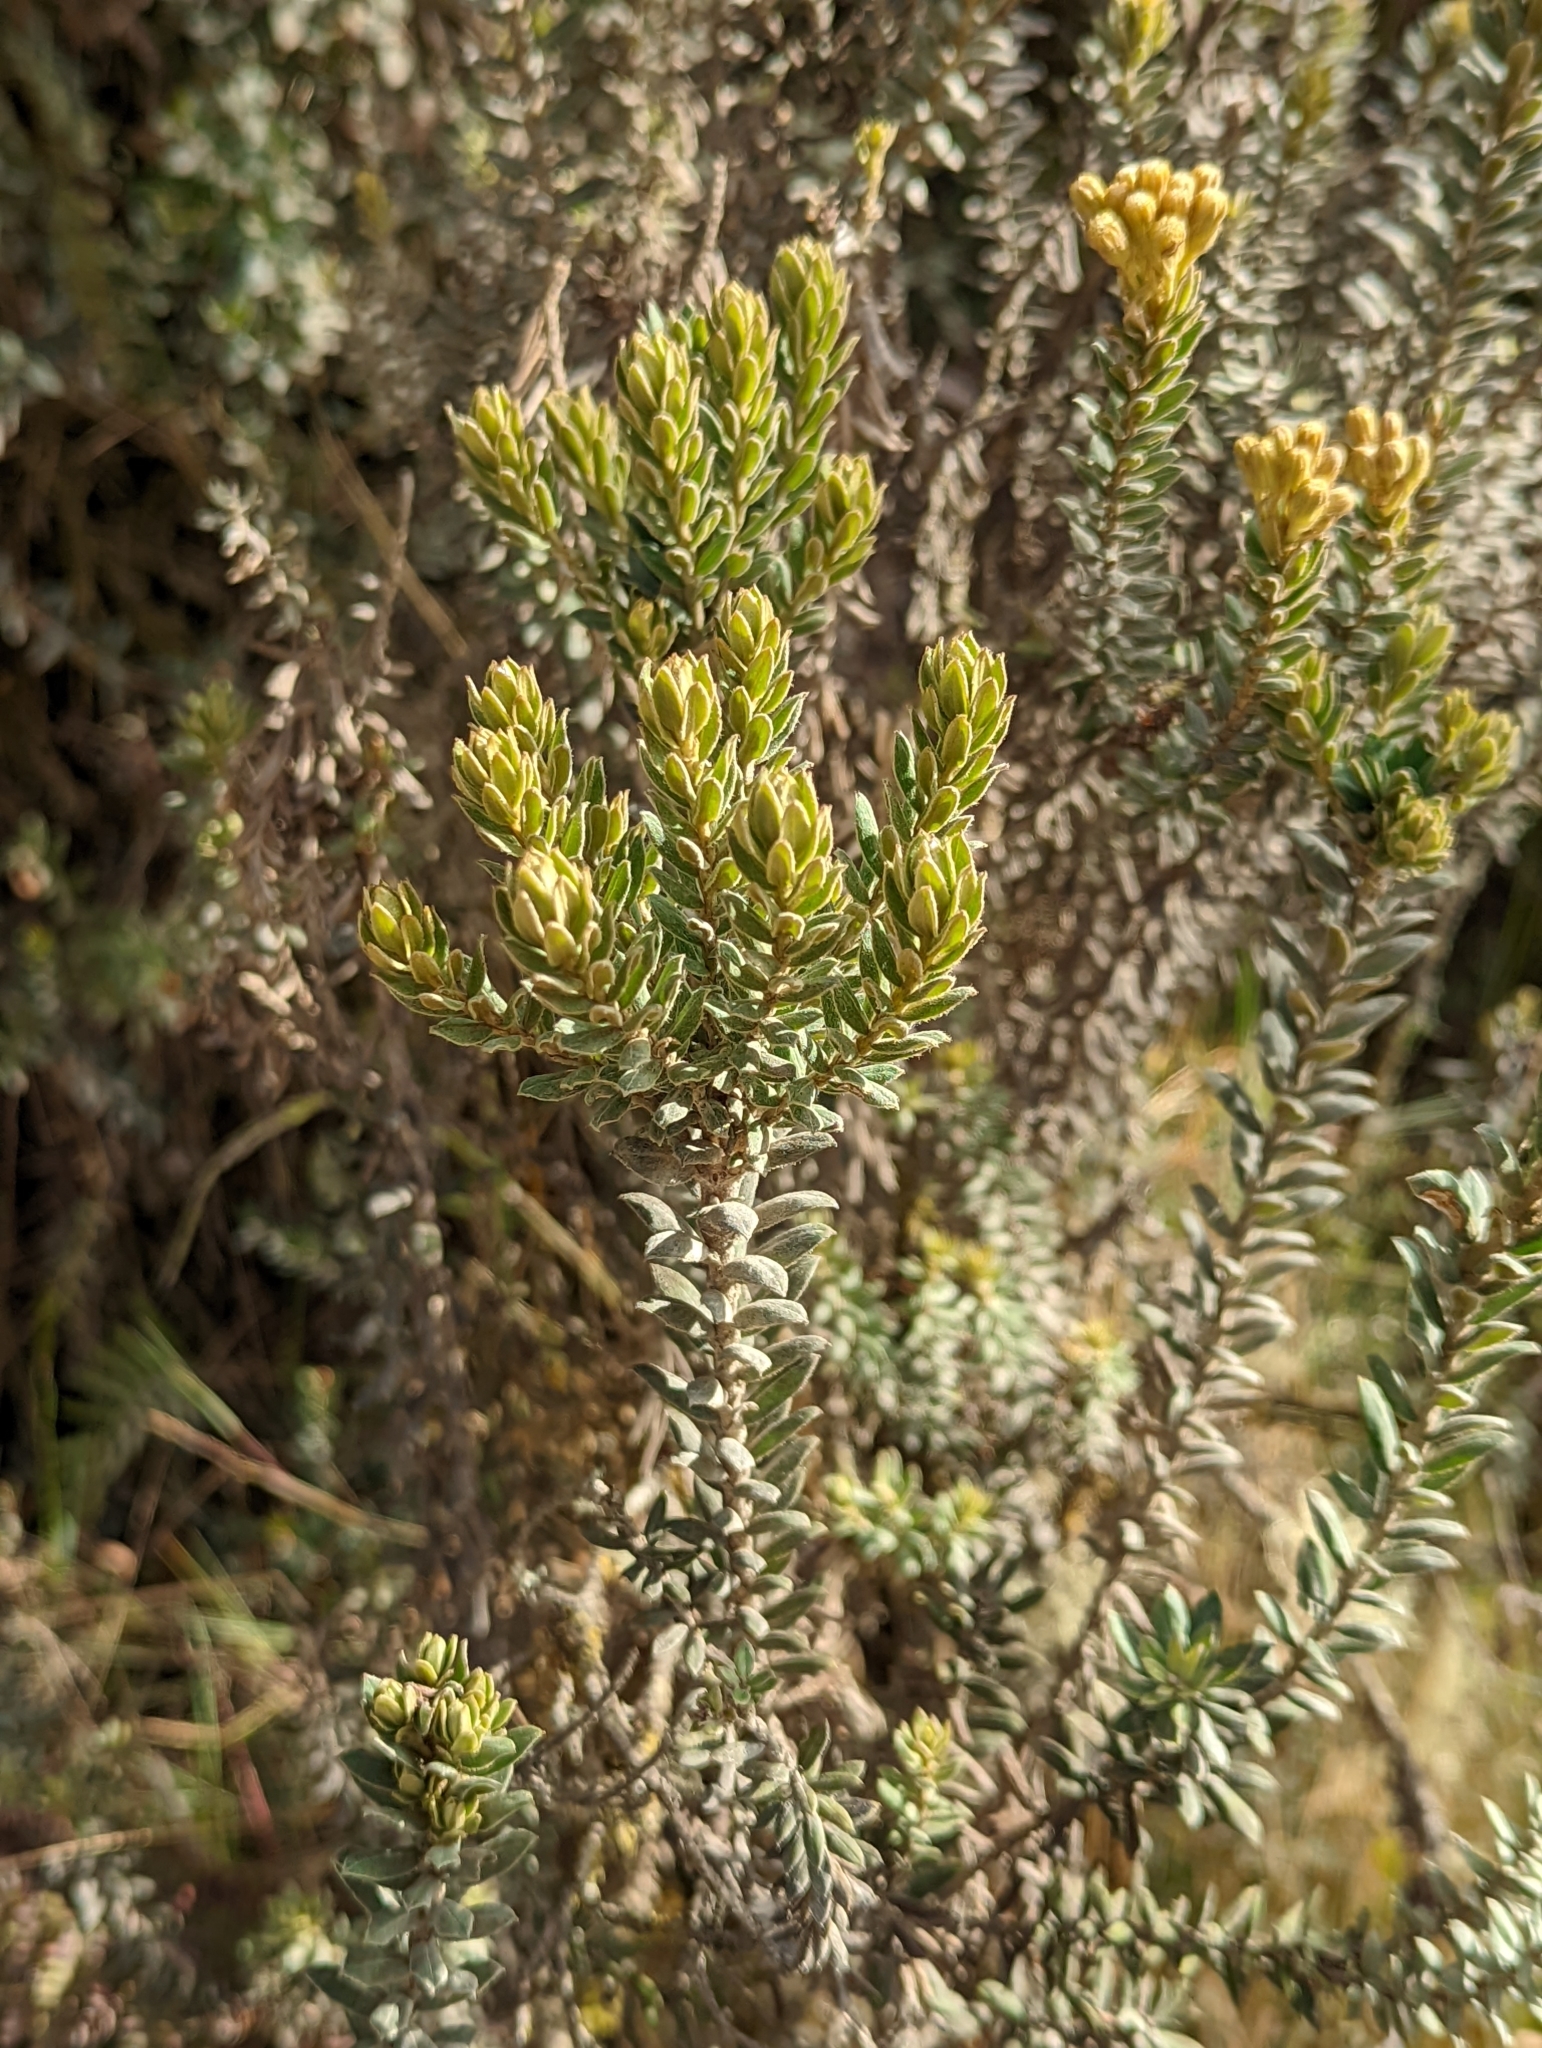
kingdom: Plantae
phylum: Tracheophyta
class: Magnoliopsida
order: Asterales
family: Asteraceae
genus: Monticalia
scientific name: Monticalia ledifolia
